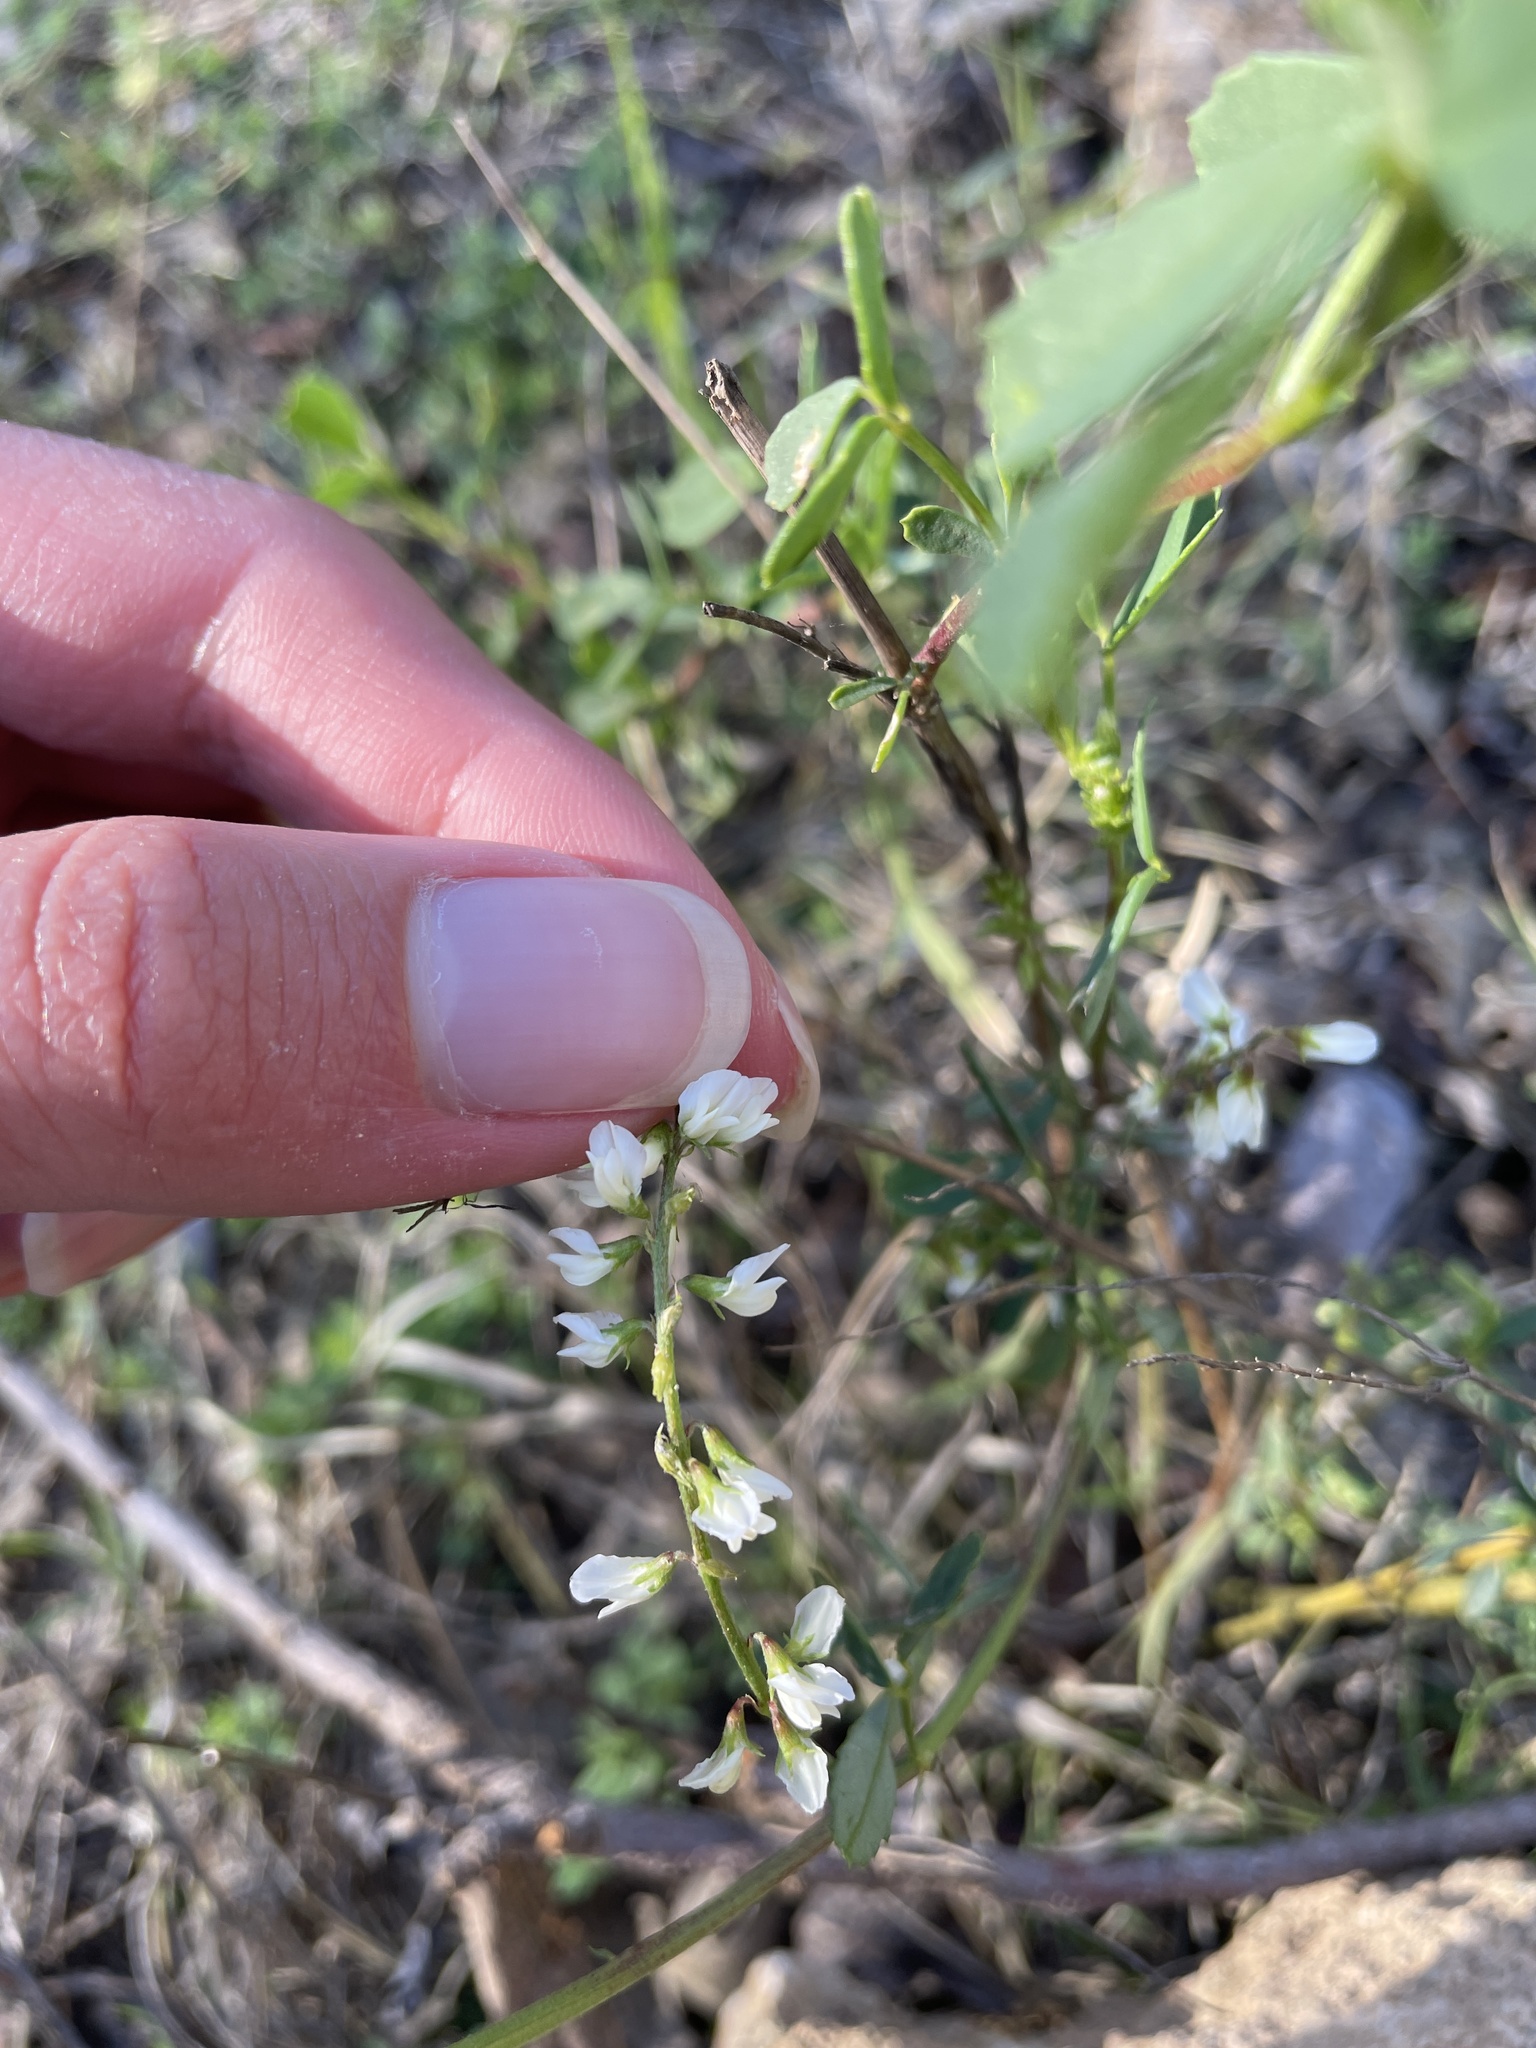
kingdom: Plantae
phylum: Tracheophyta
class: Magnoliopsida
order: Fabales
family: Fabaceae
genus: Melilotus
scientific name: Melilotus albus
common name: White melilot
